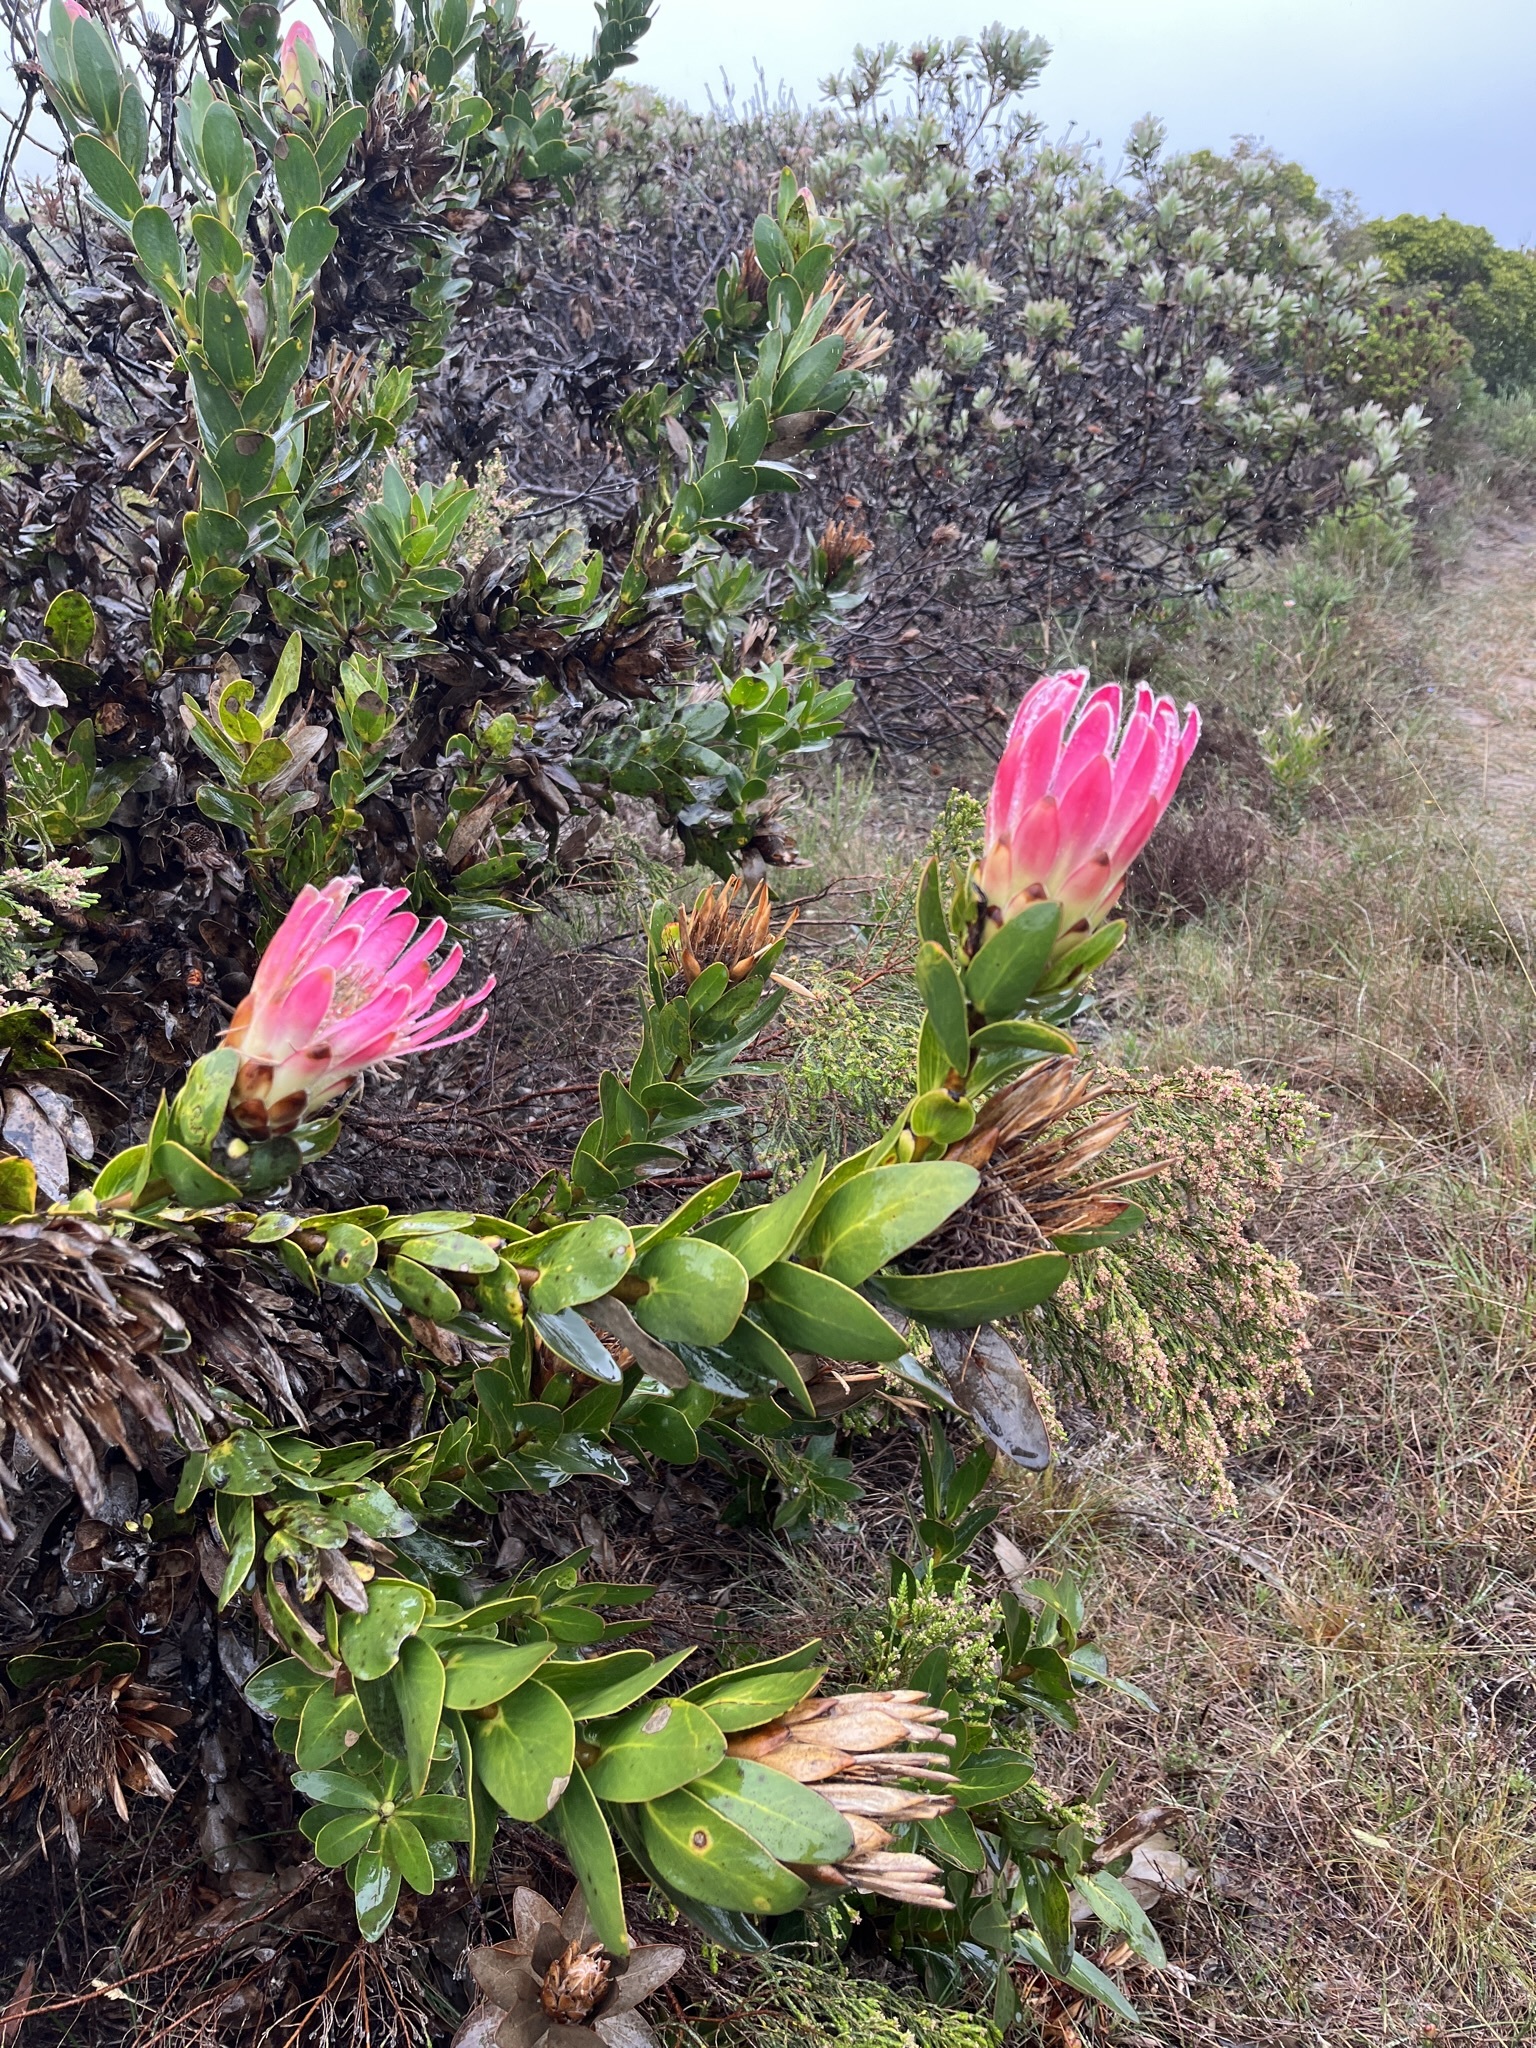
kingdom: Plantae
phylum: Tracheophyta
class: Magnoliopsida
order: Proteales
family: Proteaceae
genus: Protea
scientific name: Protea compacta
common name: Bot river protea
